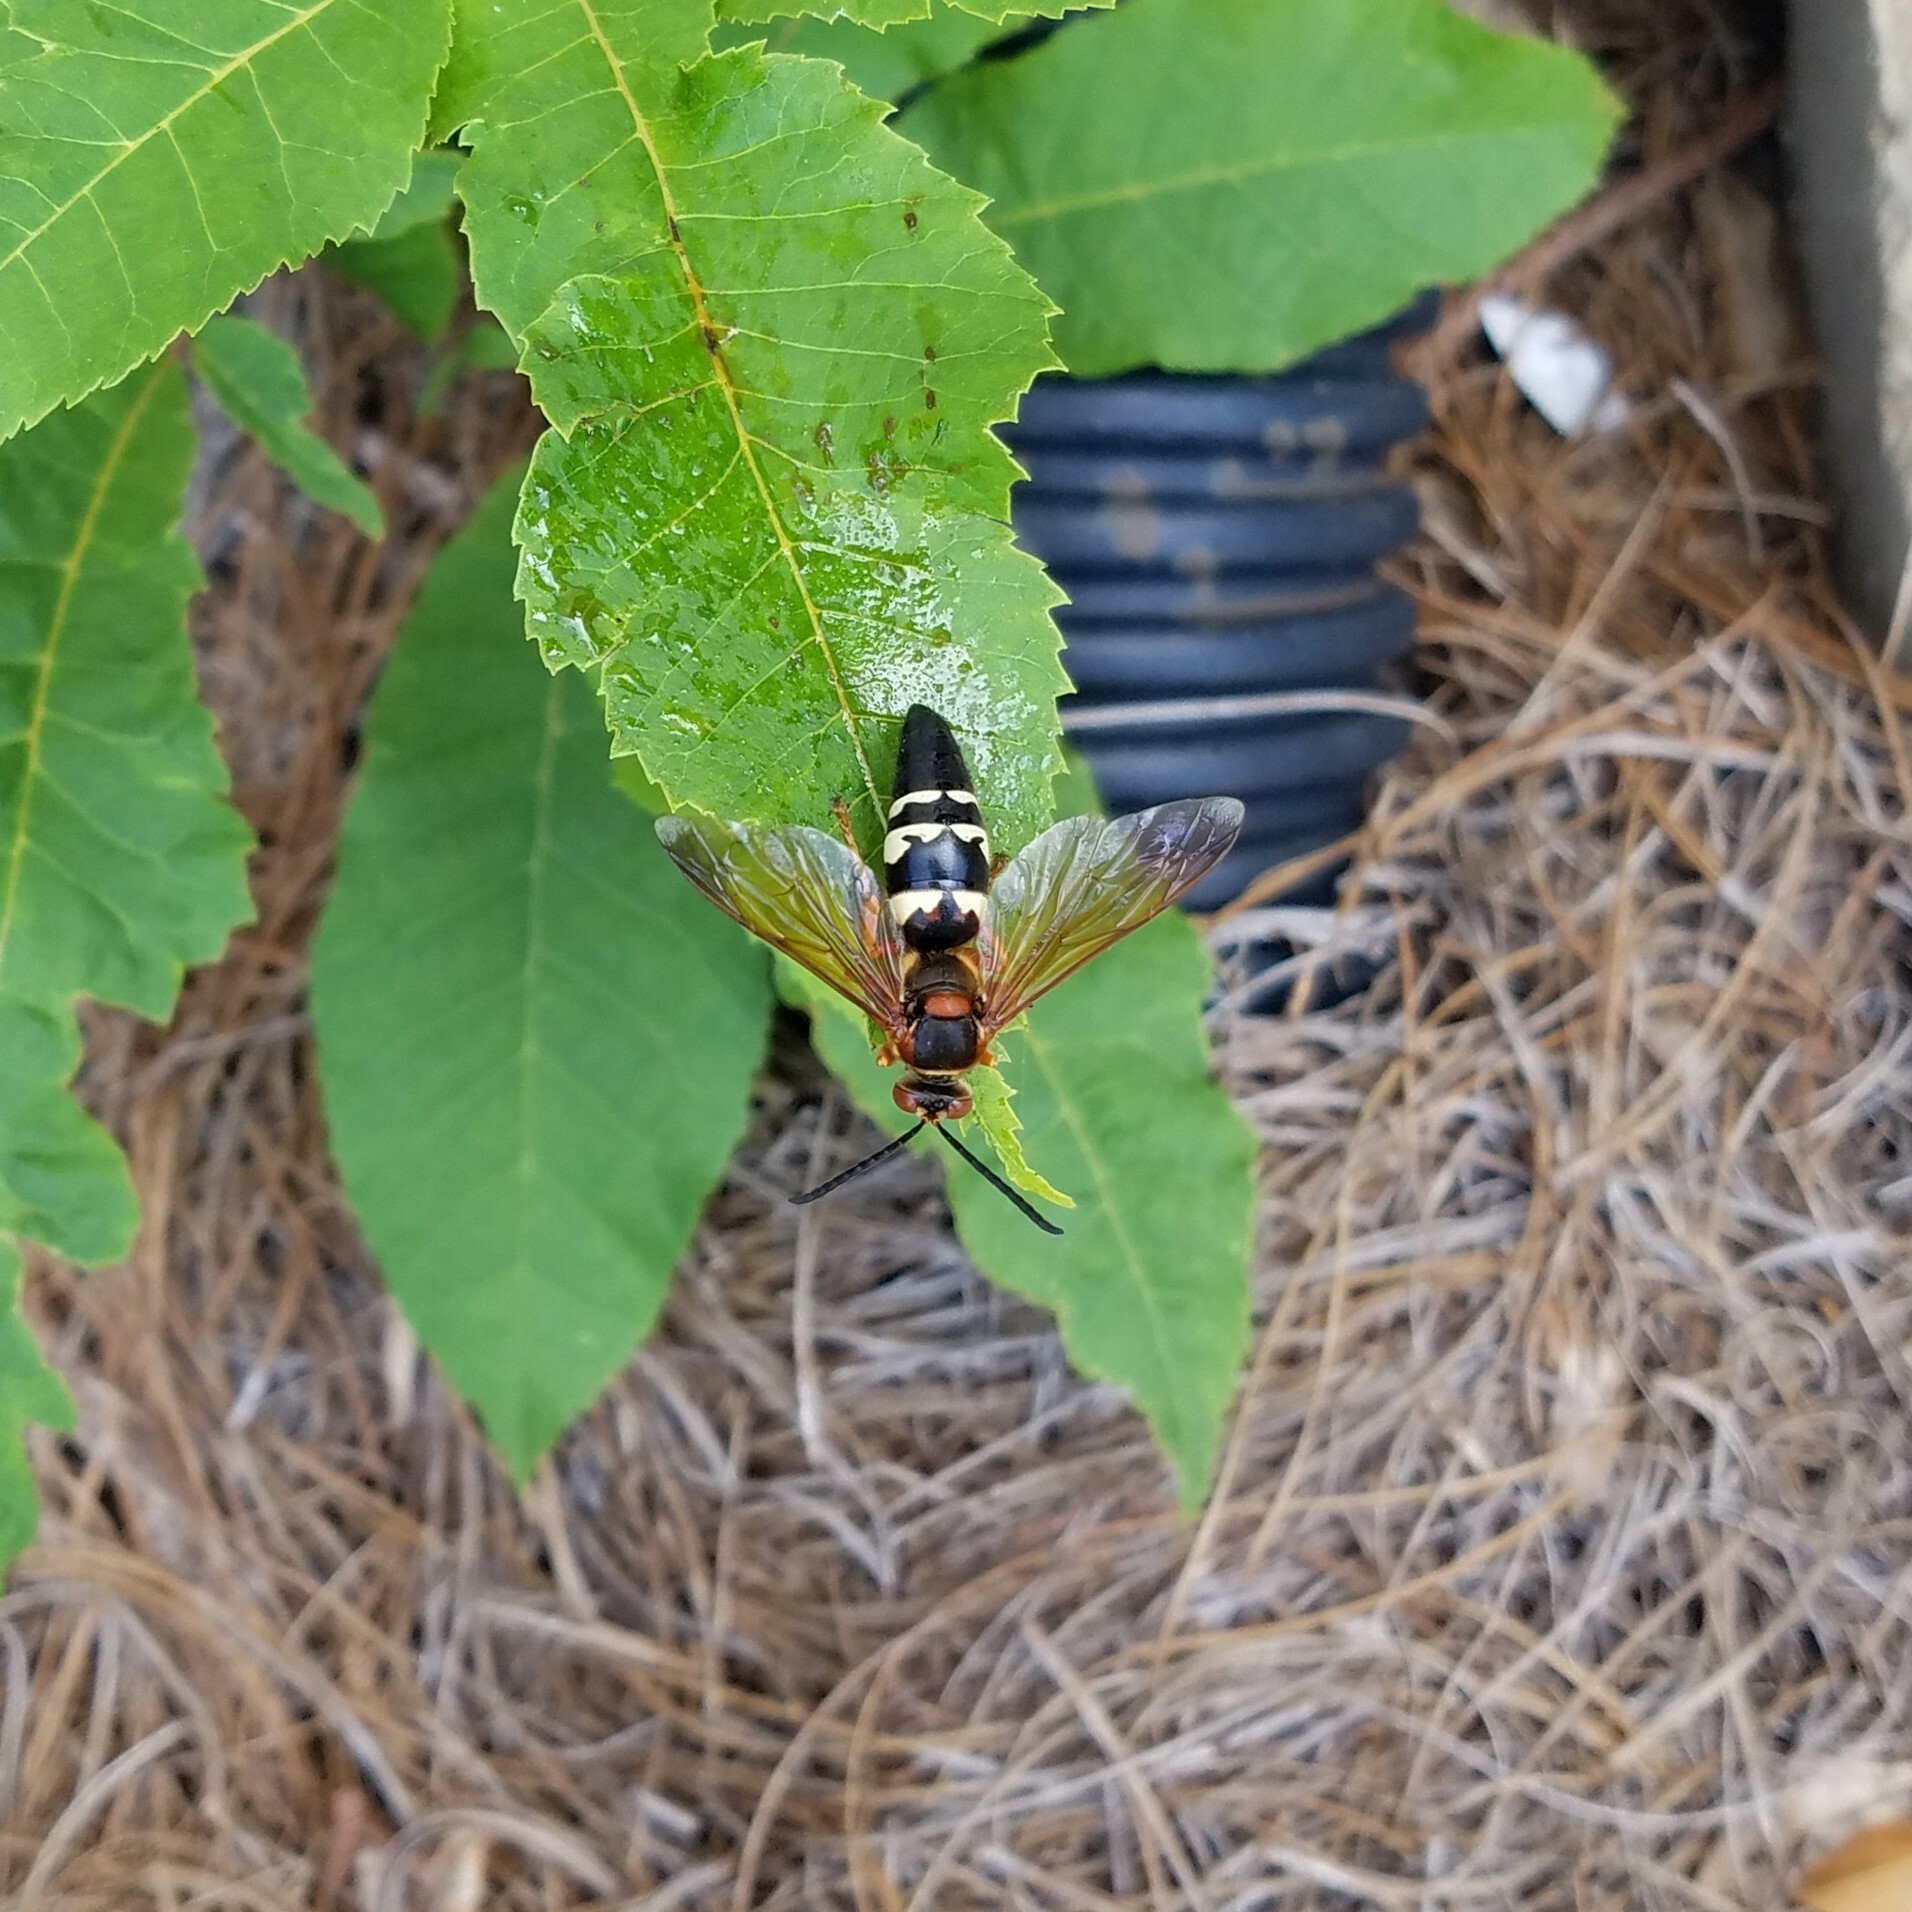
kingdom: Animalia
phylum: Arthropoda
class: Insecta
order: Hymenoptera
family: Crabronidae
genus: Sphecius
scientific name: Sphecius speciosus
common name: Cicada killer
